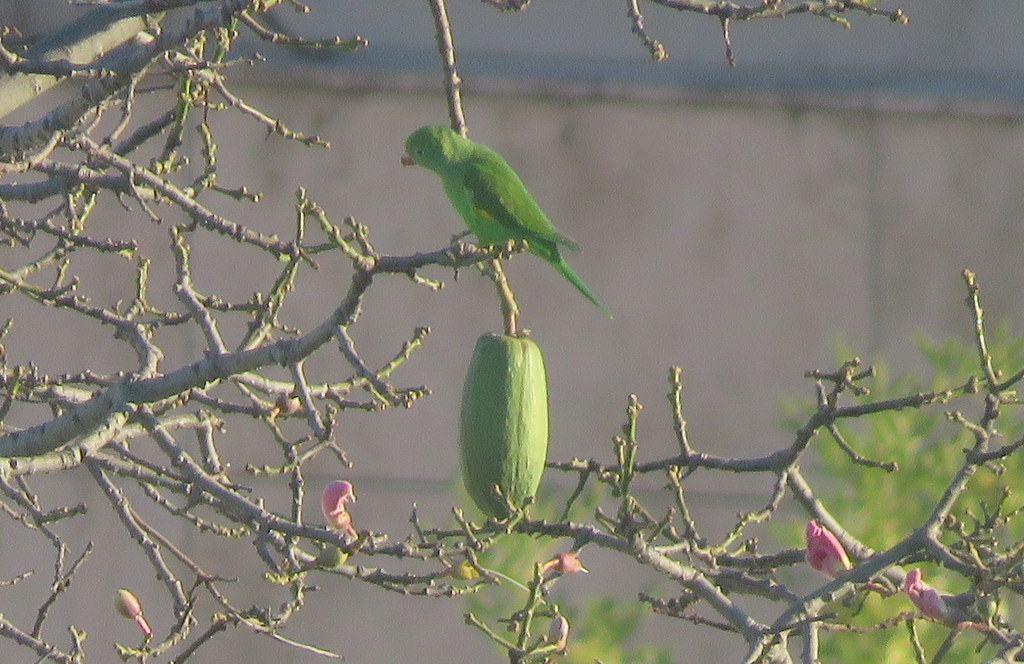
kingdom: Animalia
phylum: Chordata
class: Aves
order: Psittaciformes
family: Psittacidae
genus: Brotogeris
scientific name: Brotogeris chiriri
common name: Yellow-chevroned parakeet
